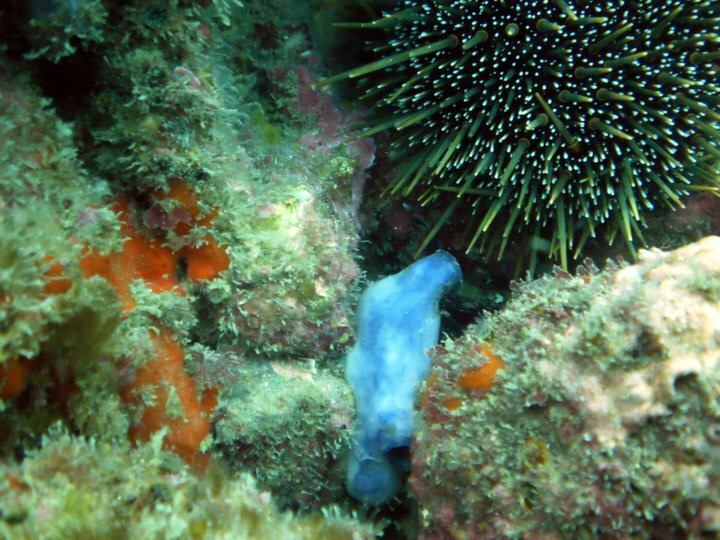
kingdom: Animalia
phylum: Chordata
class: Ascidiacea
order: Stolidobranchia
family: Styelidae
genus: Asterocarpa
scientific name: Asterocarpa coerulea
